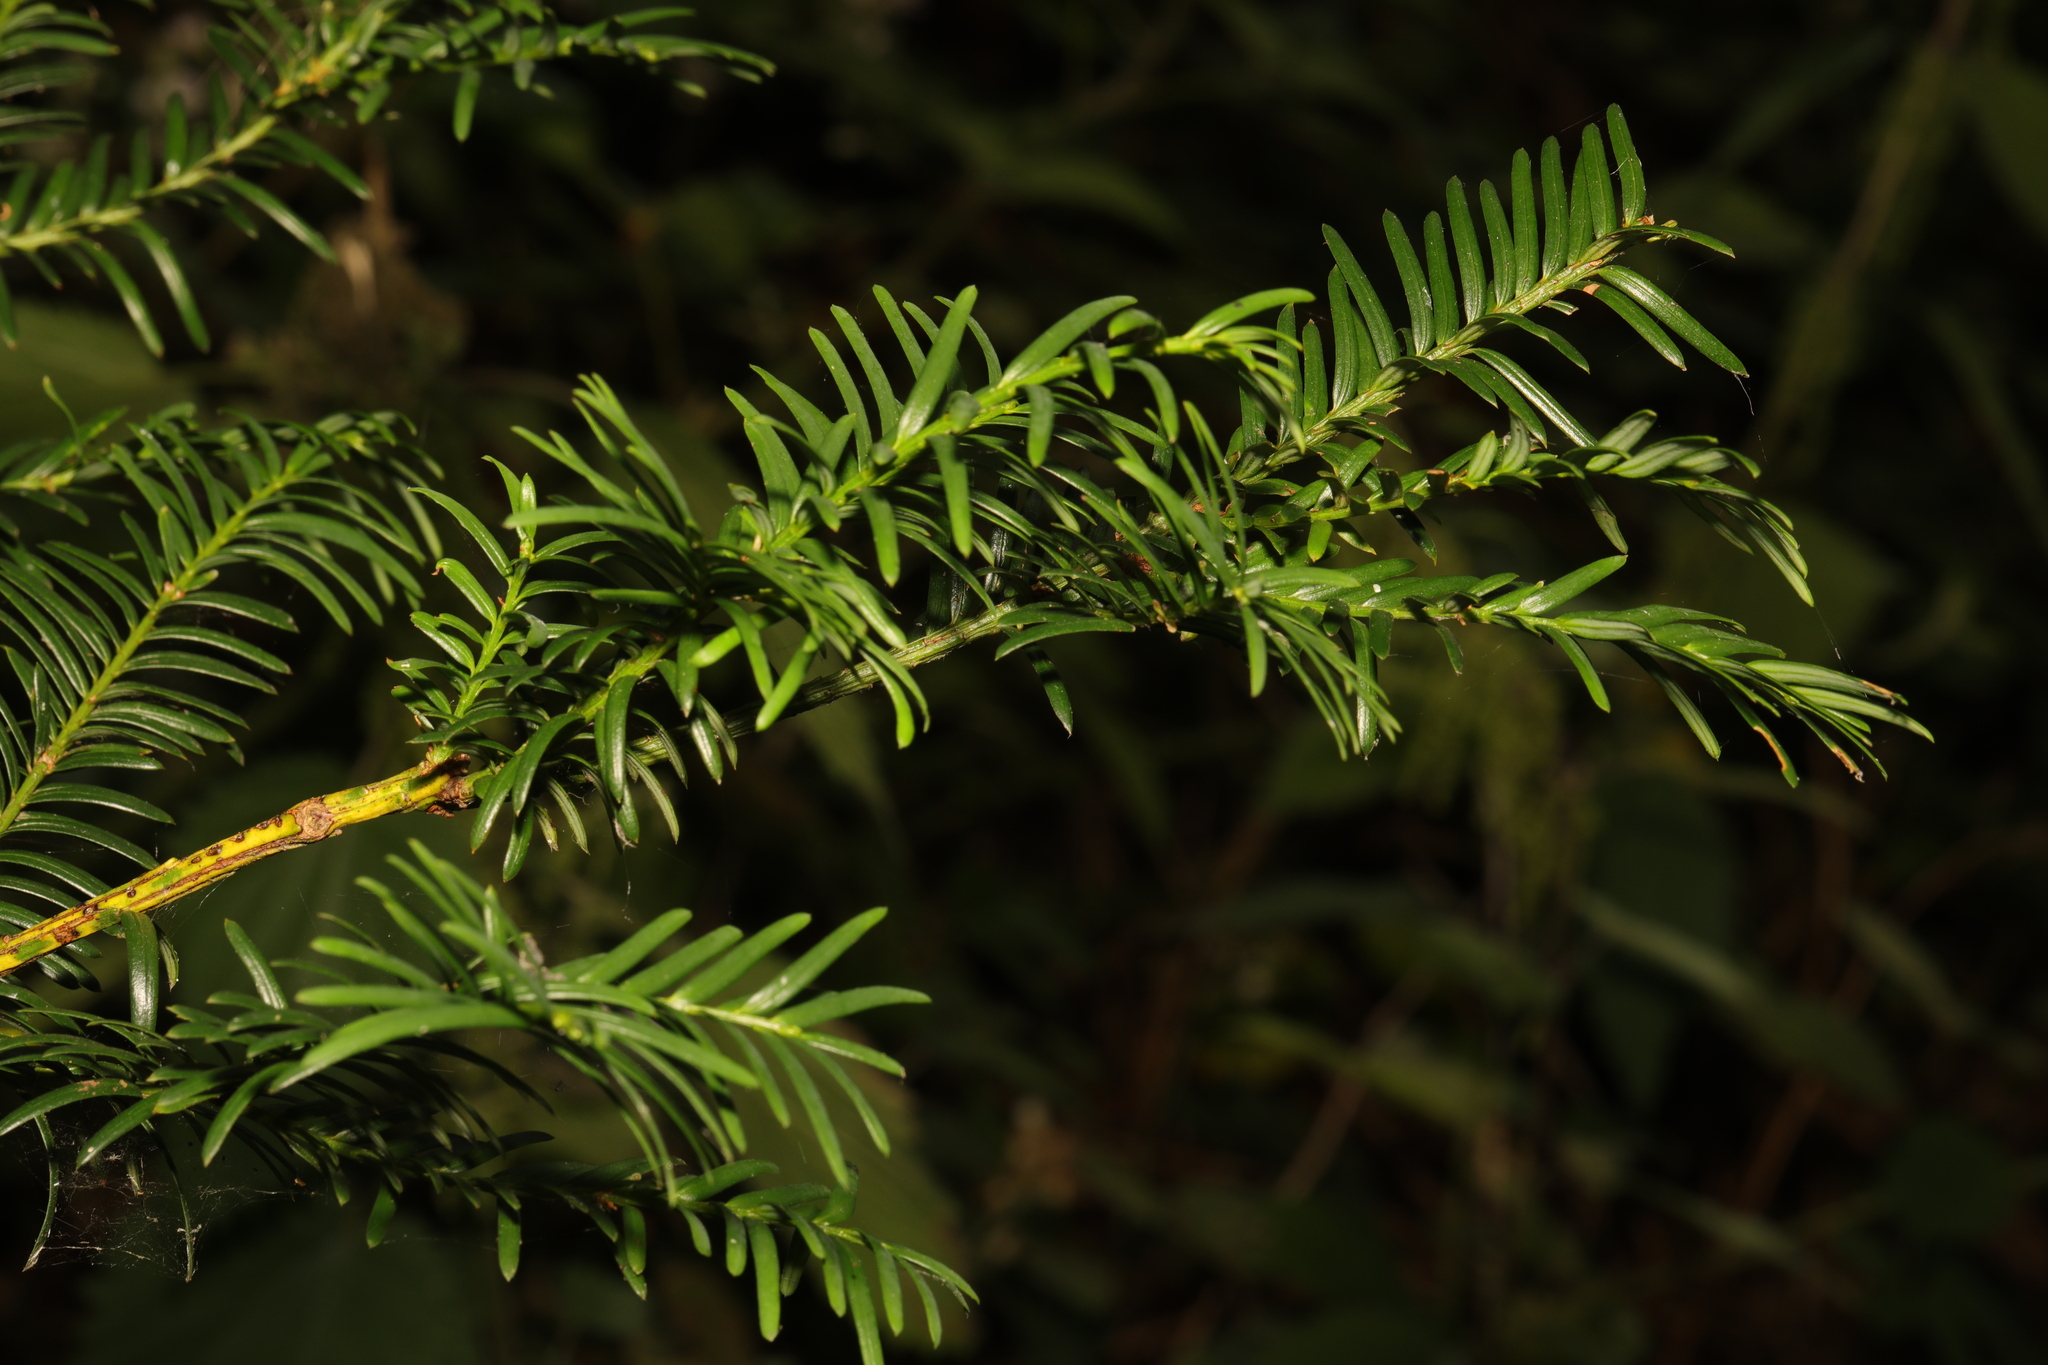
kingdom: Plantae
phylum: Tracheophyta
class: Pinopsida
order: Pinales
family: Taxaceae
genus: Taxus
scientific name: Taxus baccata
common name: Yew
